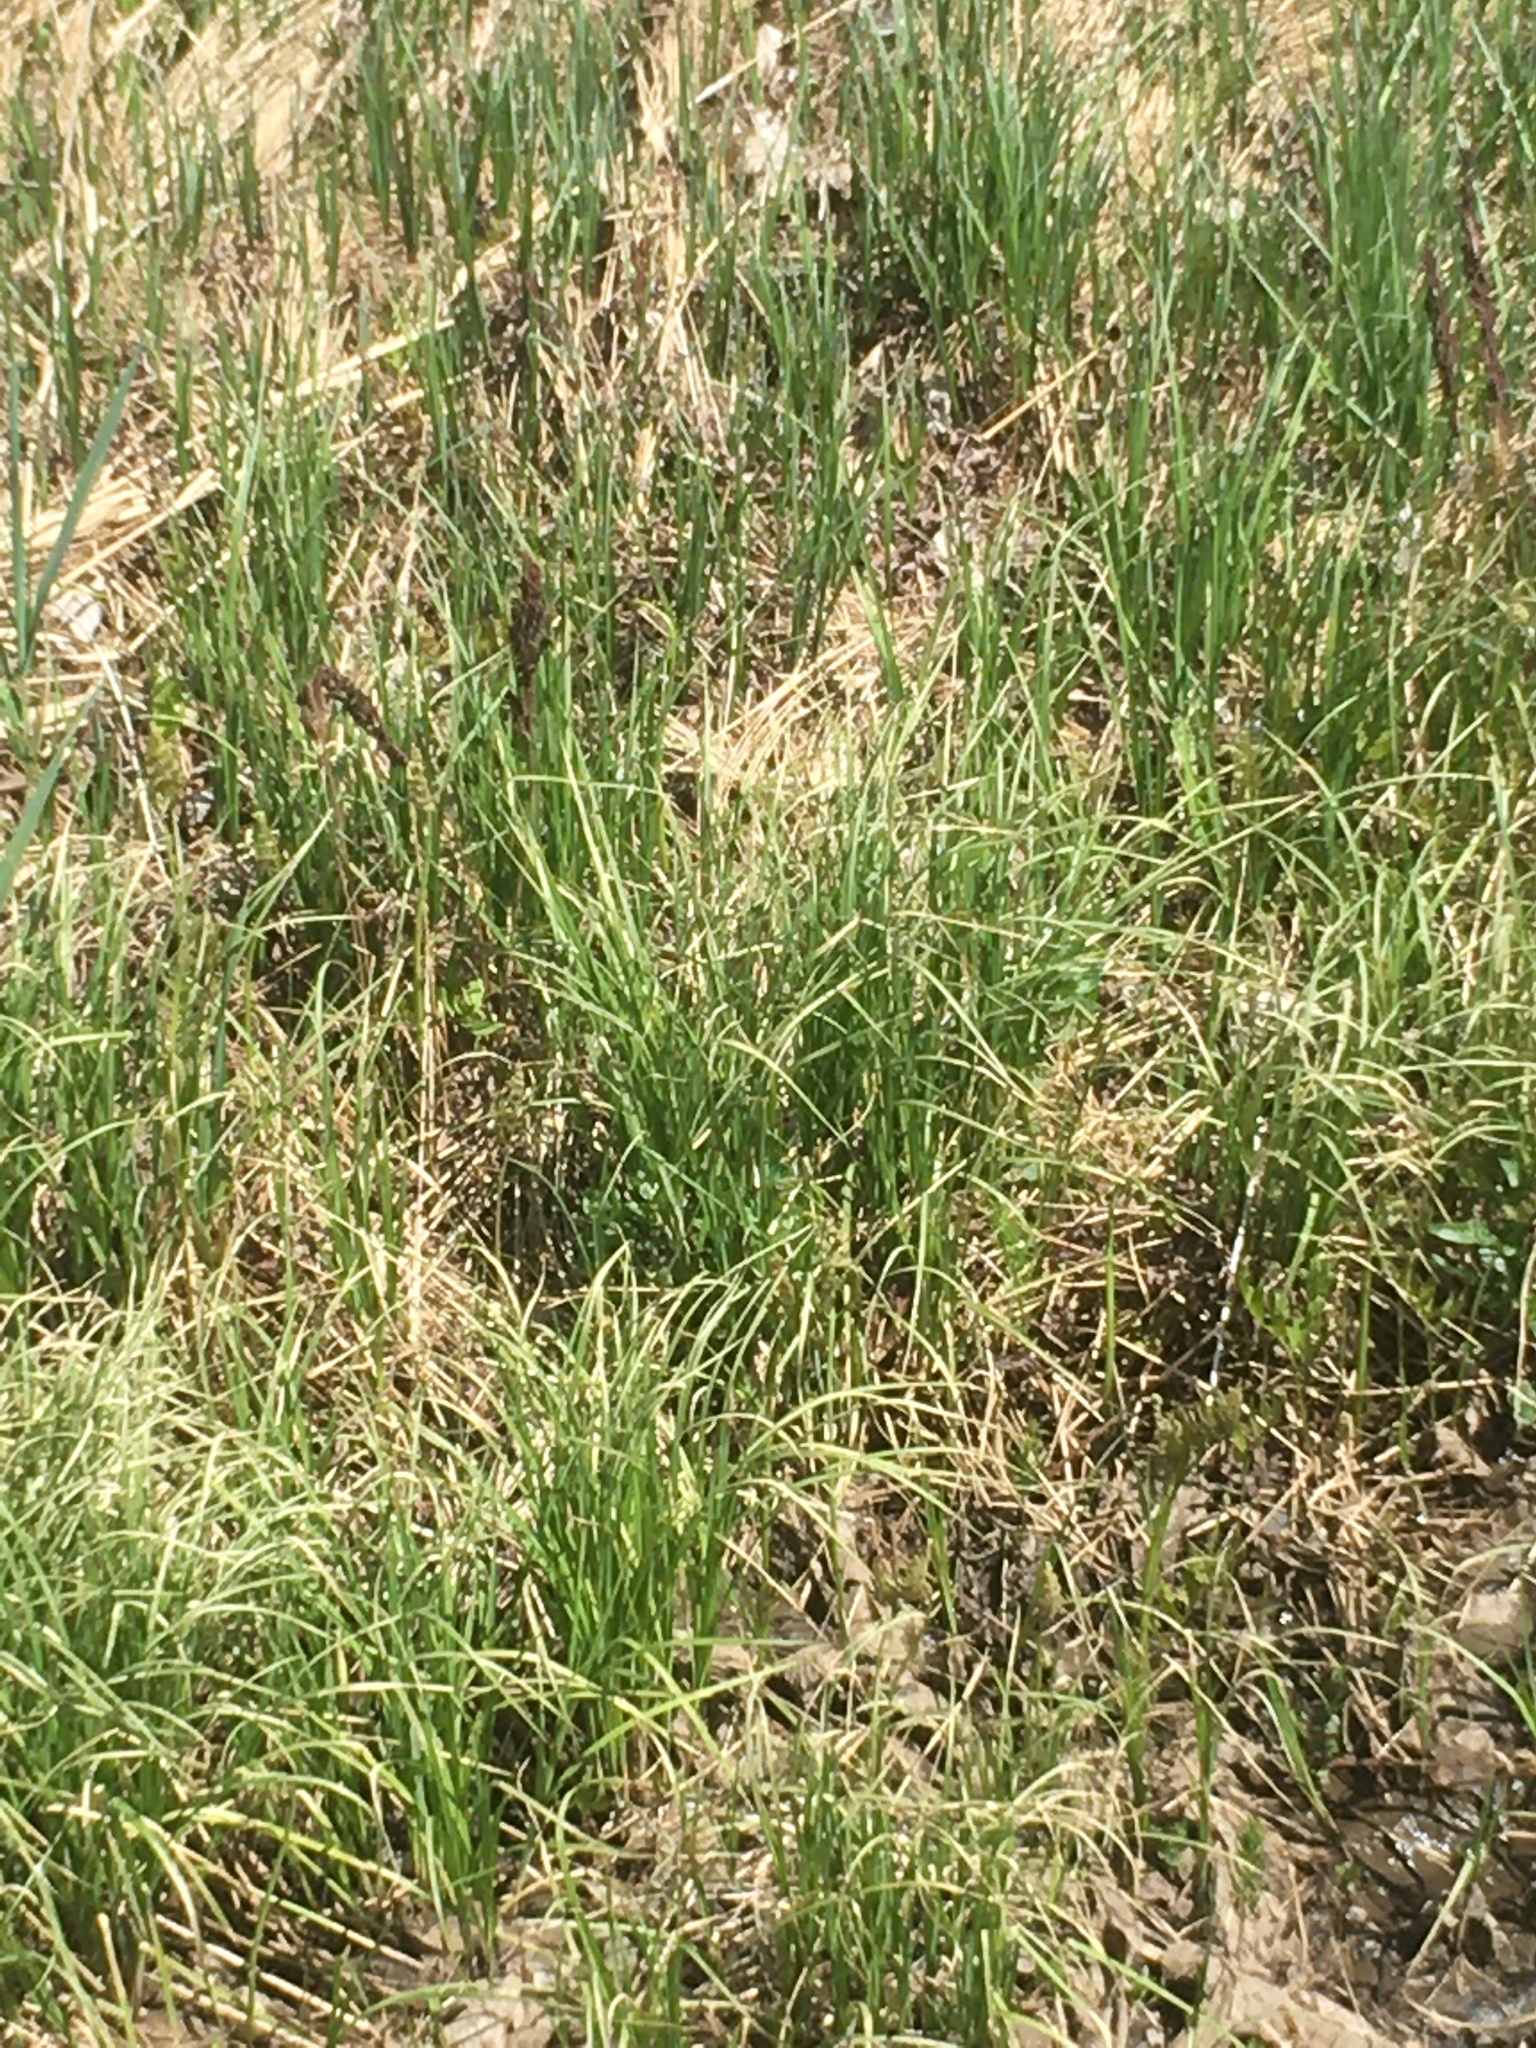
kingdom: Plantae
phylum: Tracheophyta
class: Polypodiopsida
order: Polypodiales
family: Onocleaceae
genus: Onoclea
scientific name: Onoclea sensibilis
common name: Sensitive fern
